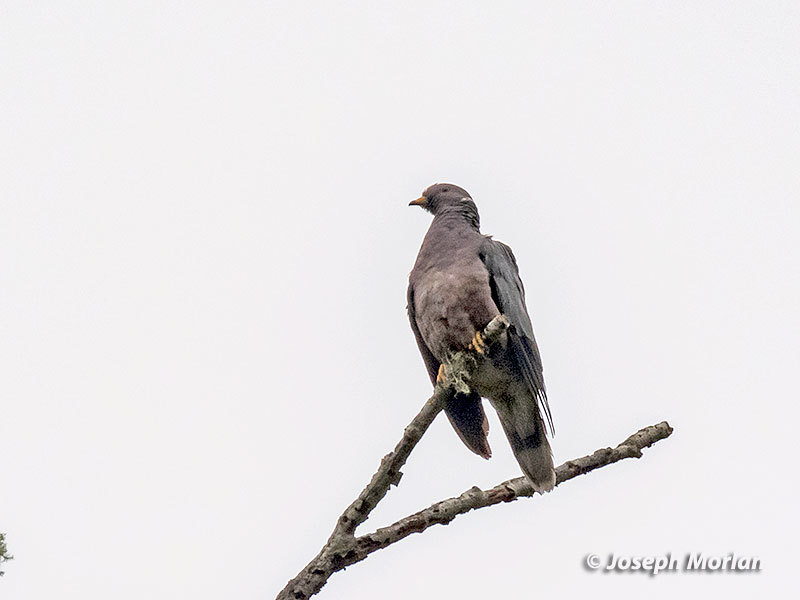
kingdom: Animalia
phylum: Chordata
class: Aves
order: Columbiformes
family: Columbidae
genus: Patagioenas
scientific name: Patagioenas fasciata
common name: Band-tailed pigeon
